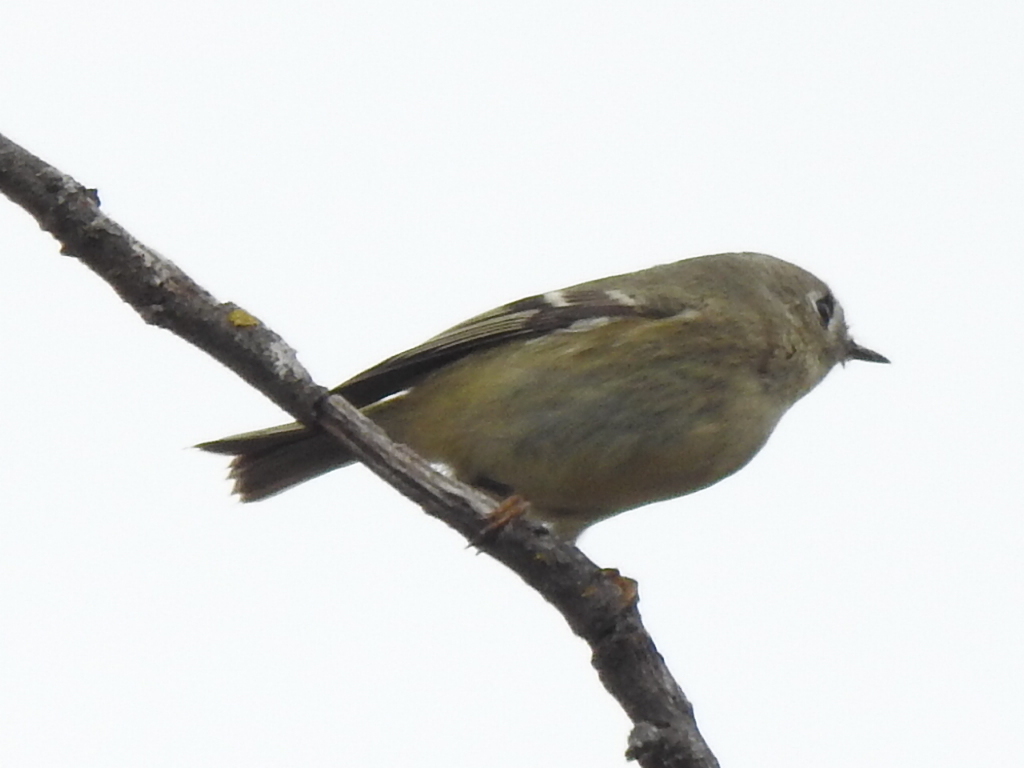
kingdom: Animalia
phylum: Chordata
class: Aves
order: Passeriformes
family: Regulidae
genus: Regulus
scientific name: Regulus calendula
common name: Ruby-crowned kinglet
